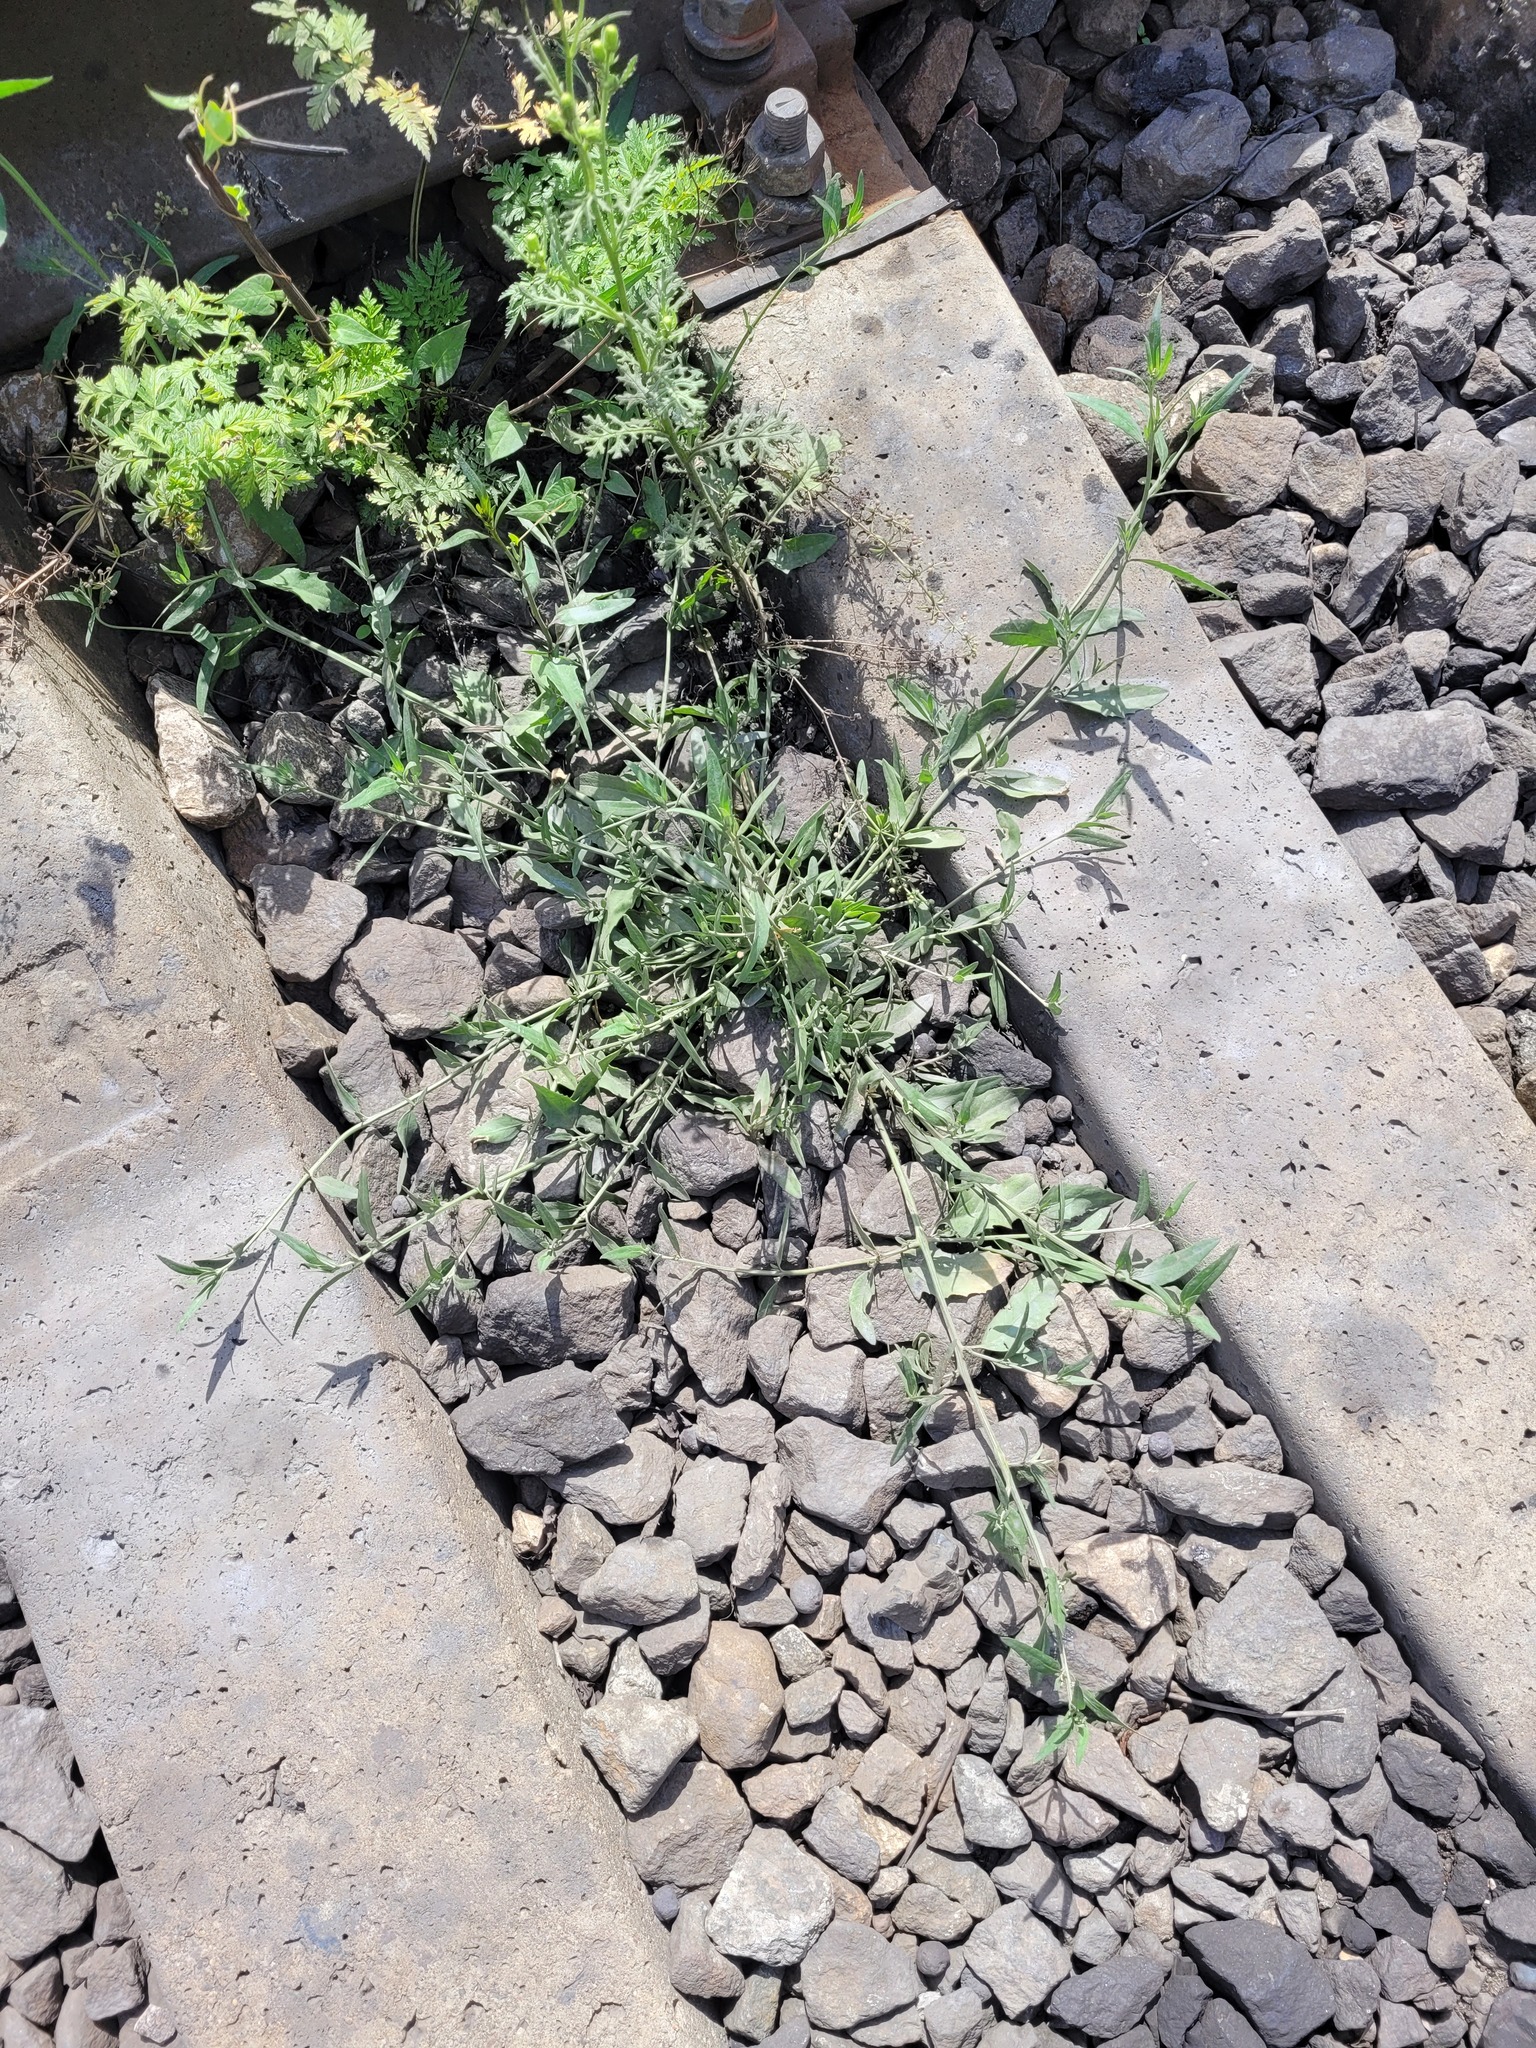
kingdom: Plantae
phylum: Tracheophyta
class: Magnoliopsida
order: Caryophyllales
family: Amaranthaceae
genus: Atriplex
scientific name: Atriplex patula
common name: Common orache
